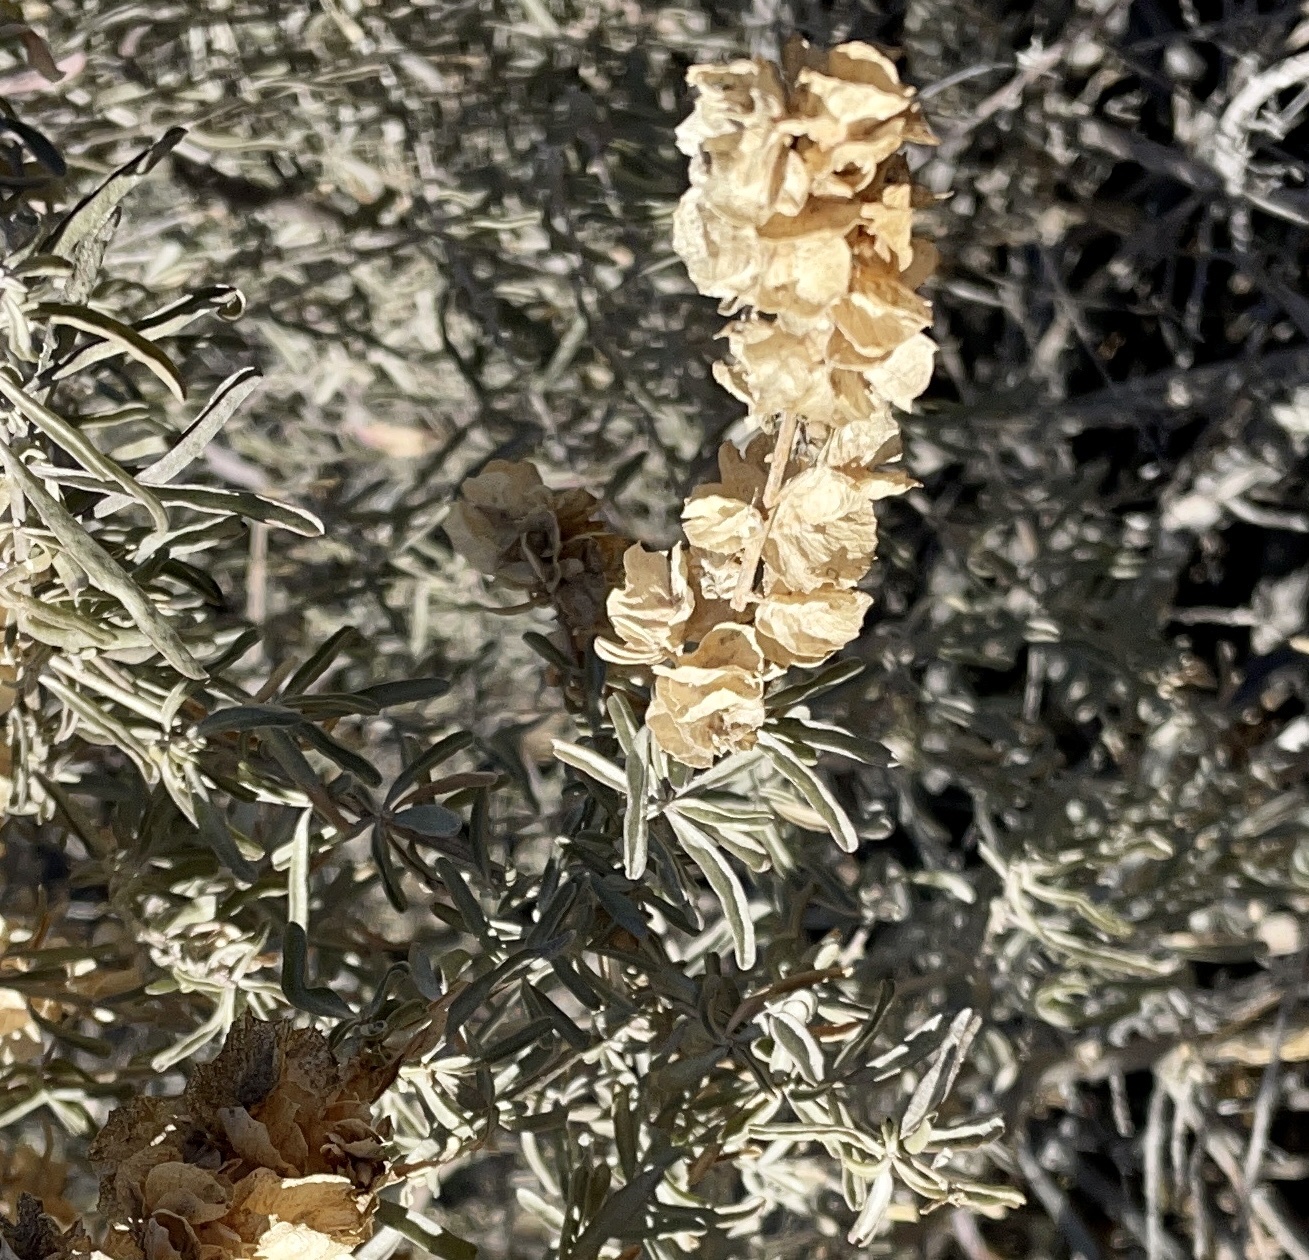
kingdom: Plantae
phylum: Tracheophyta
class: Magnoliopsida
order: Caryophyllales
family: Amaranthaceae
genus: Atriplex
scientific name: Atriplex canescens
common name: Four-wing saltbush
